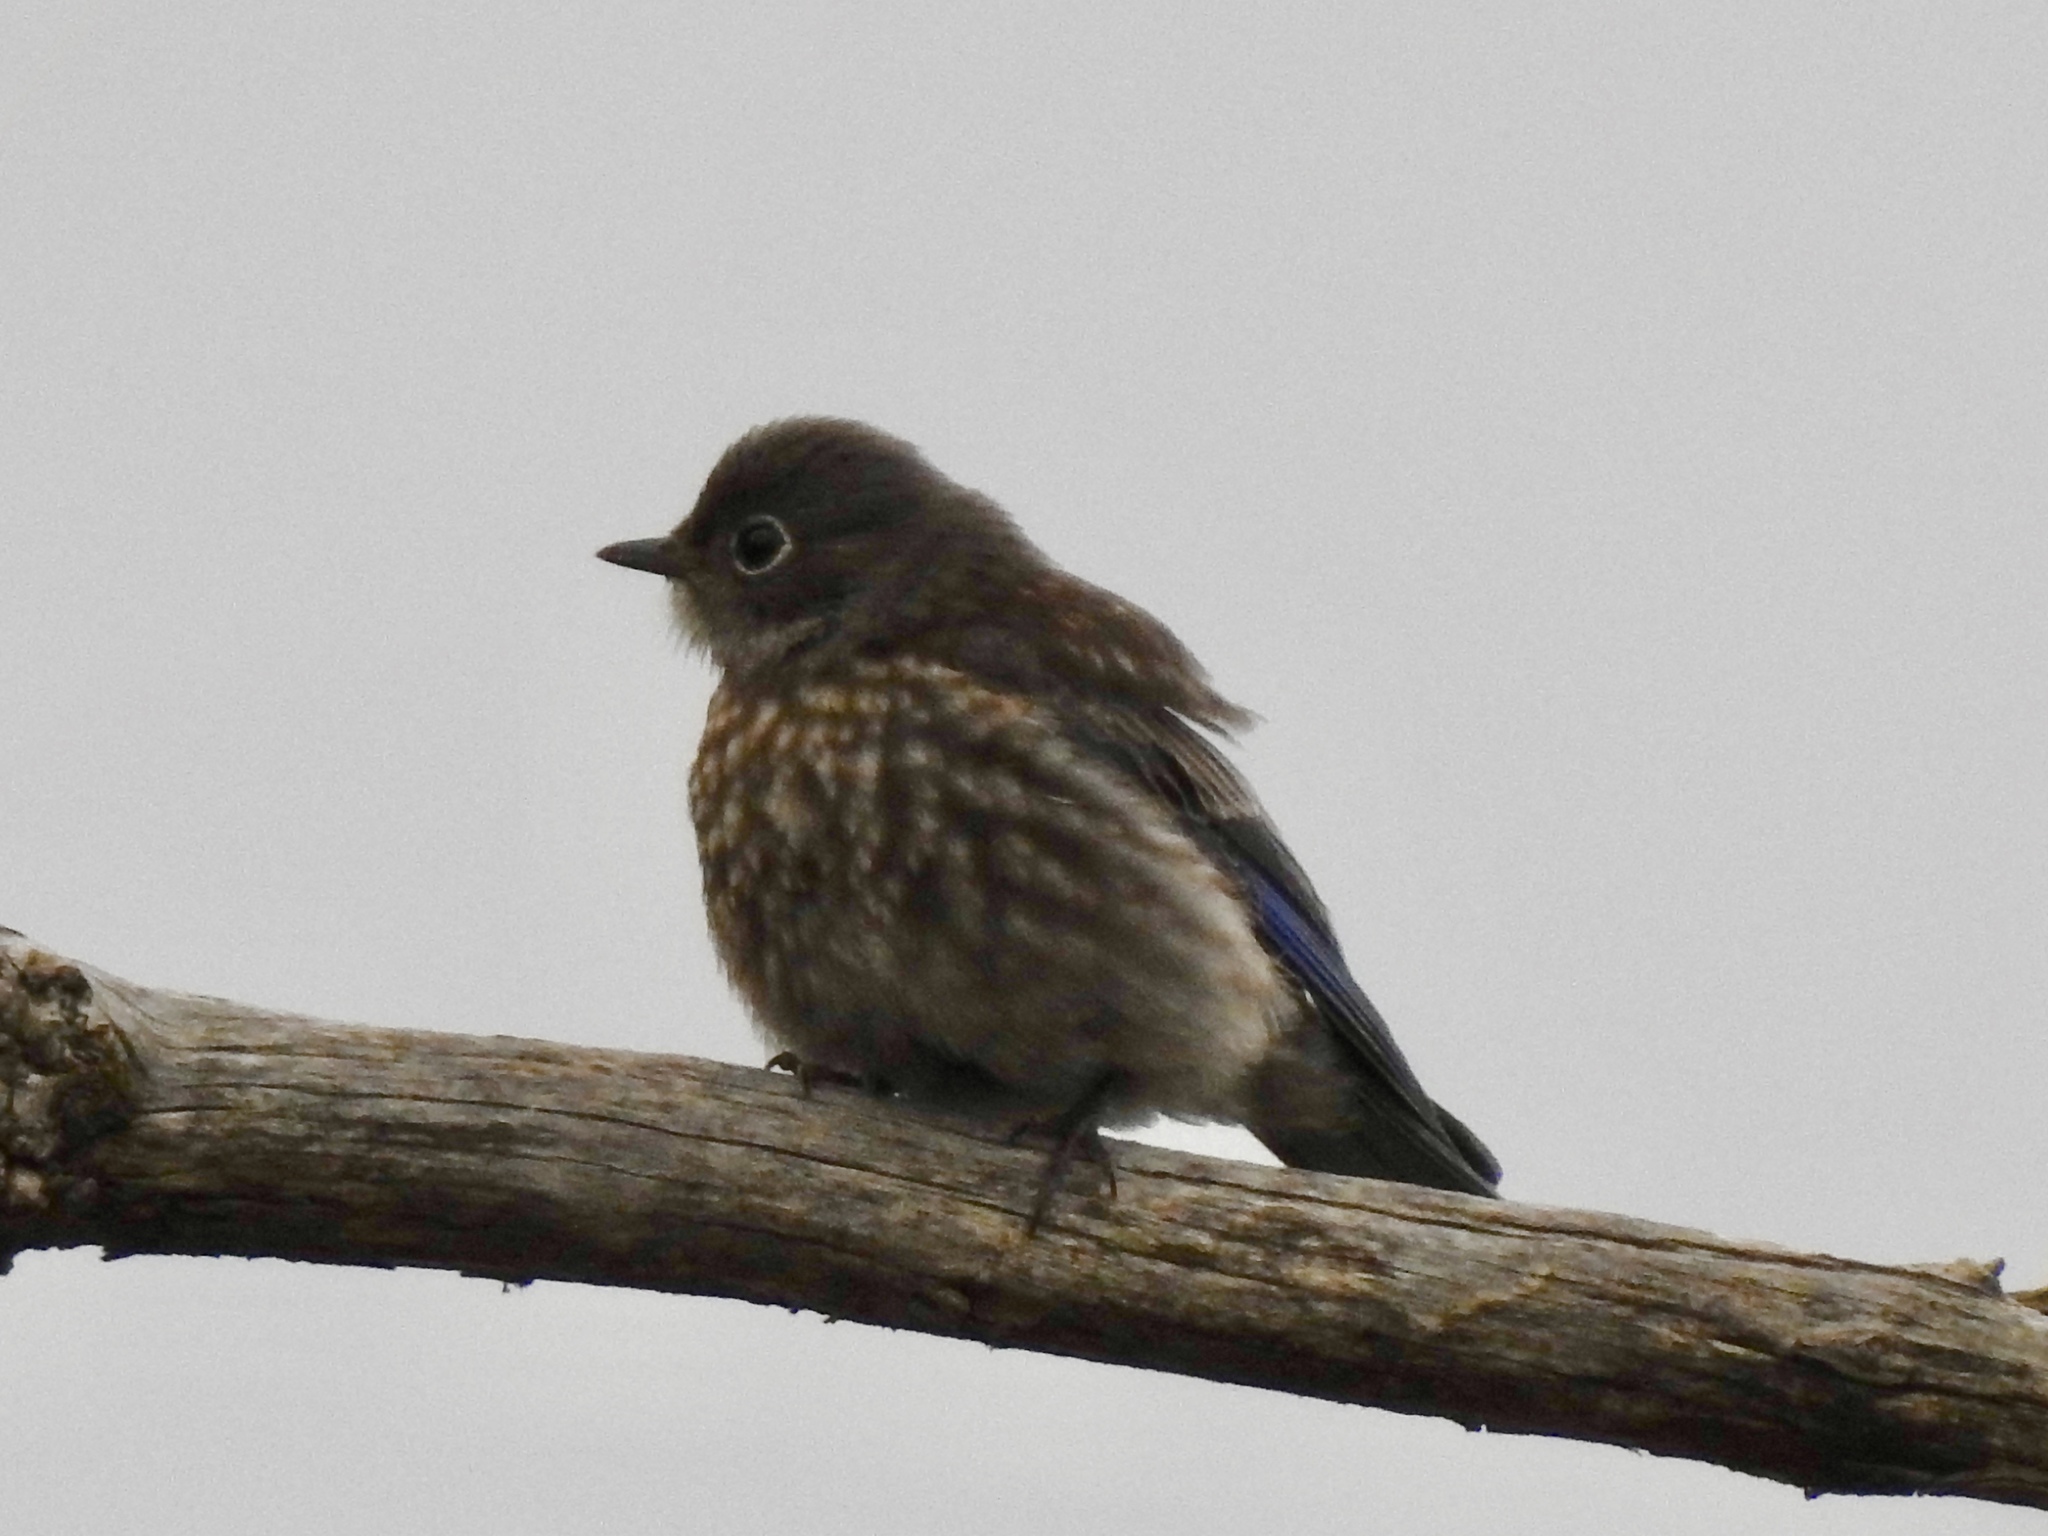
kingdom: Animalia
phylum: Chordata
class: Aves
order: Passeriformes
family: Turdidae
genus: Sialia
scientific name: Sialia mexicana
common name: Western bluebird
